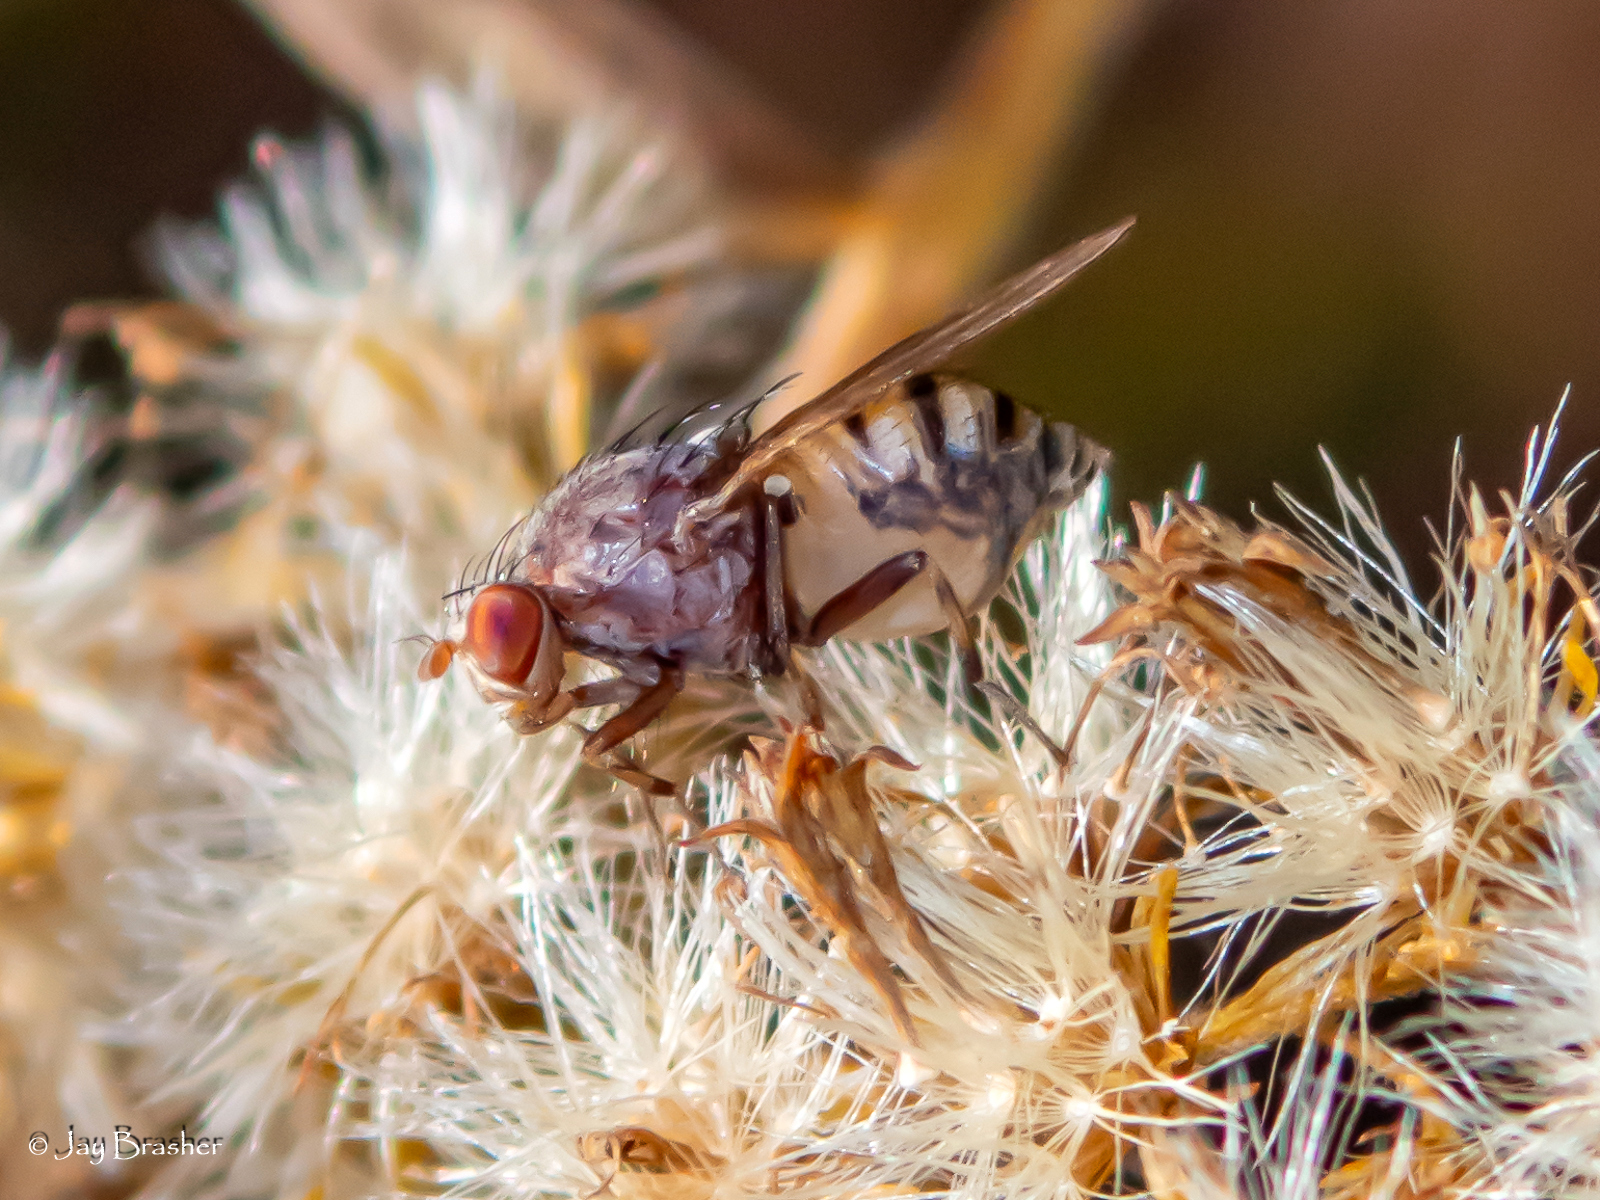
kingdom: Animalia
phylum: Arthropoda
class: Insecta
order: Diptera
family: Lauxaniidae
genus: Minettia
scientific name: Minettia magna
